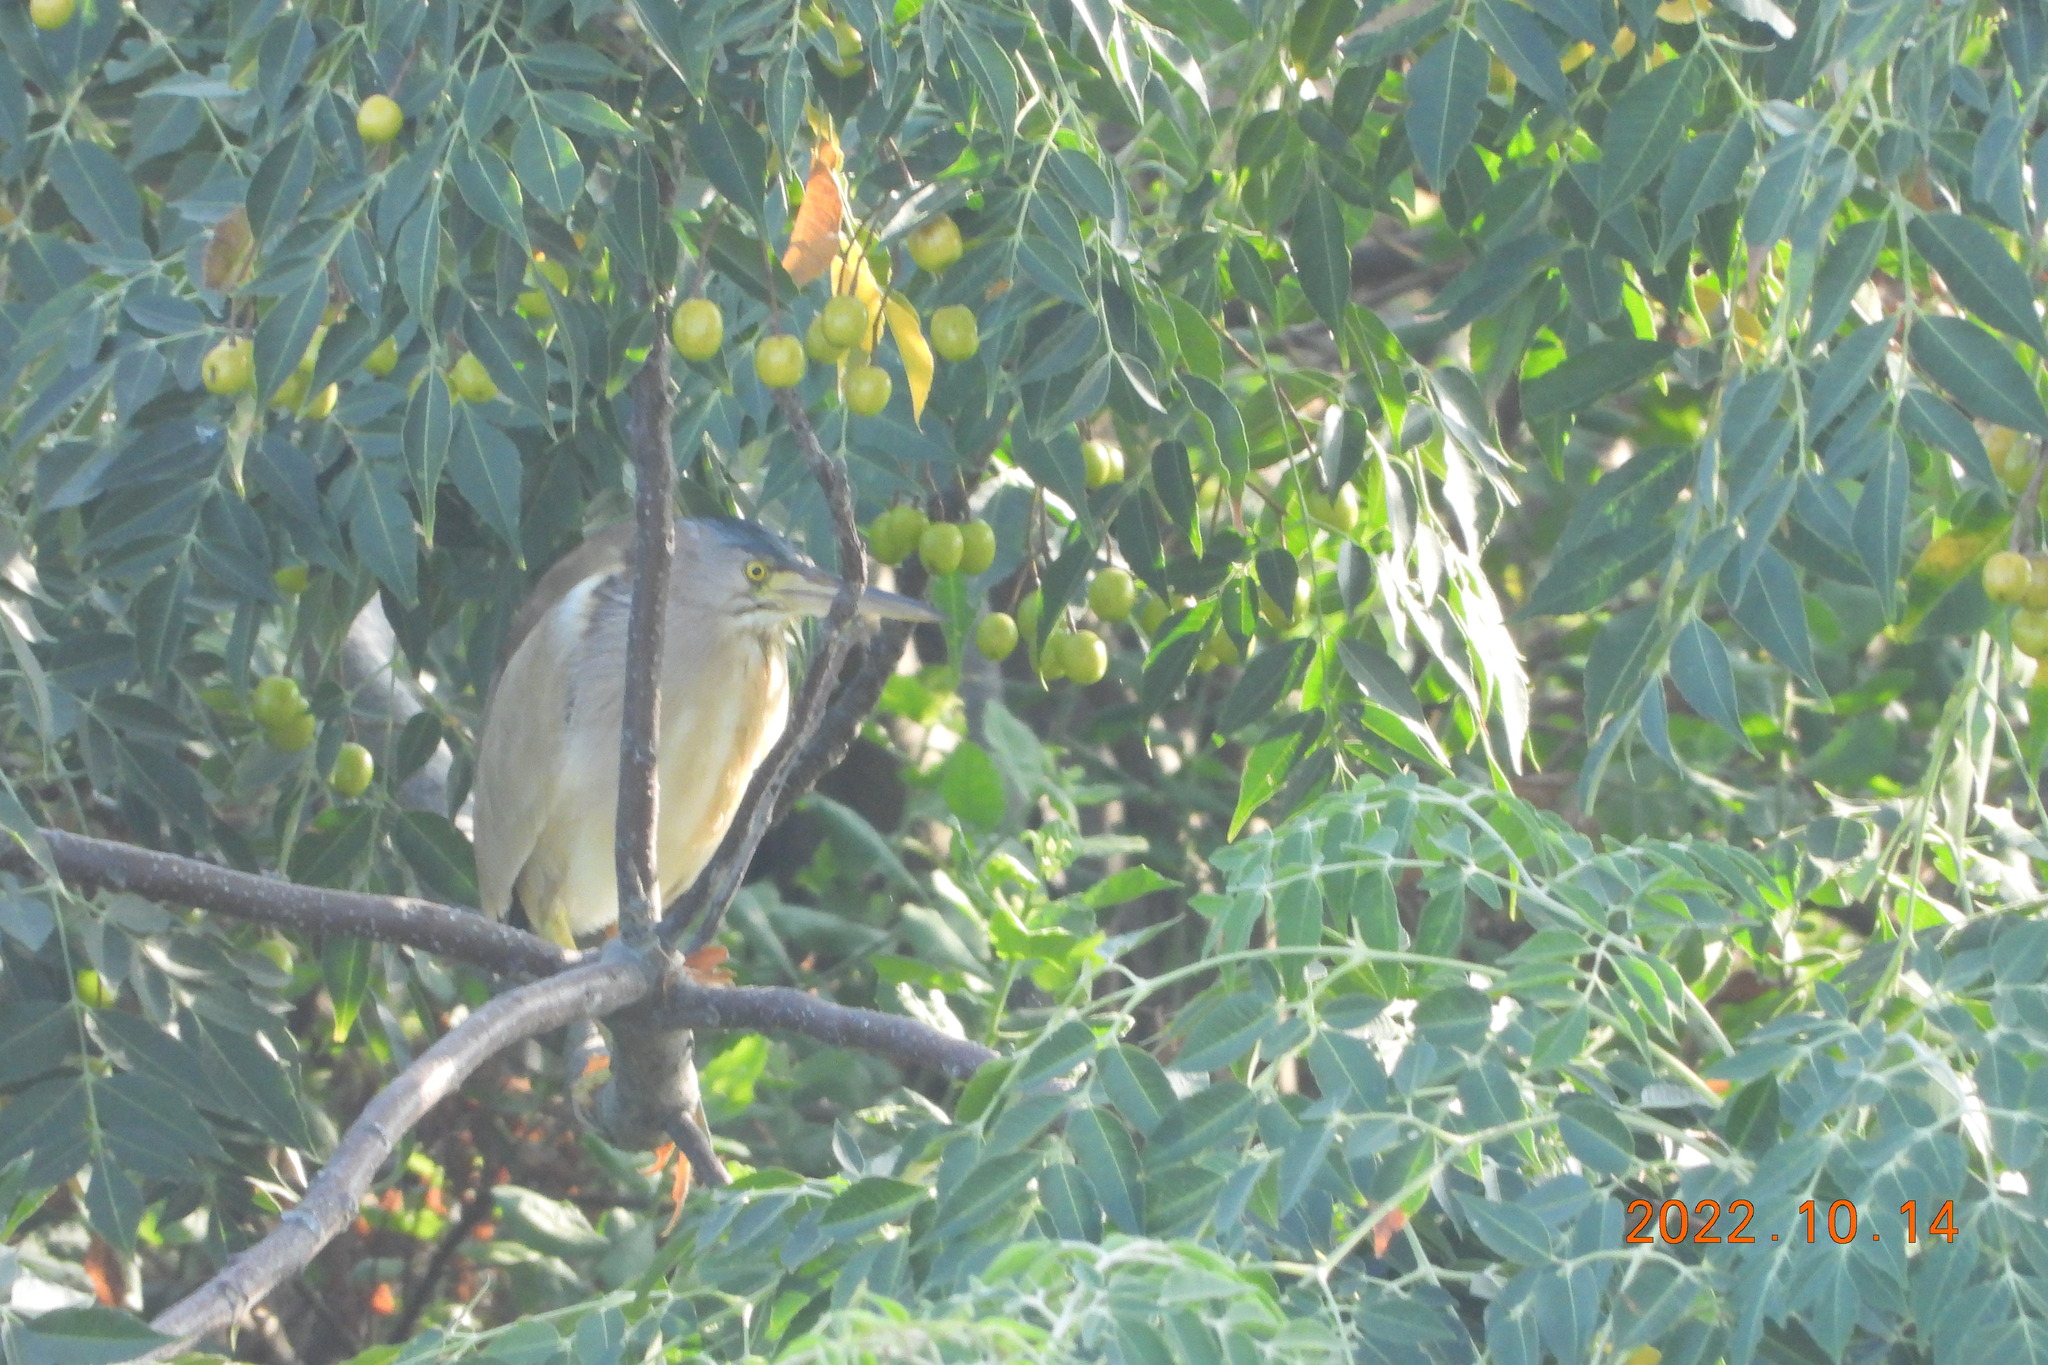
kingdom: Animalia
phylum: Chordata
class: Aves
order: Pelecaniformes
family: Ardeidae
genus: Ixobrychus
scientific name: Ixobrychus sinensis
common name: Yellow bittern
